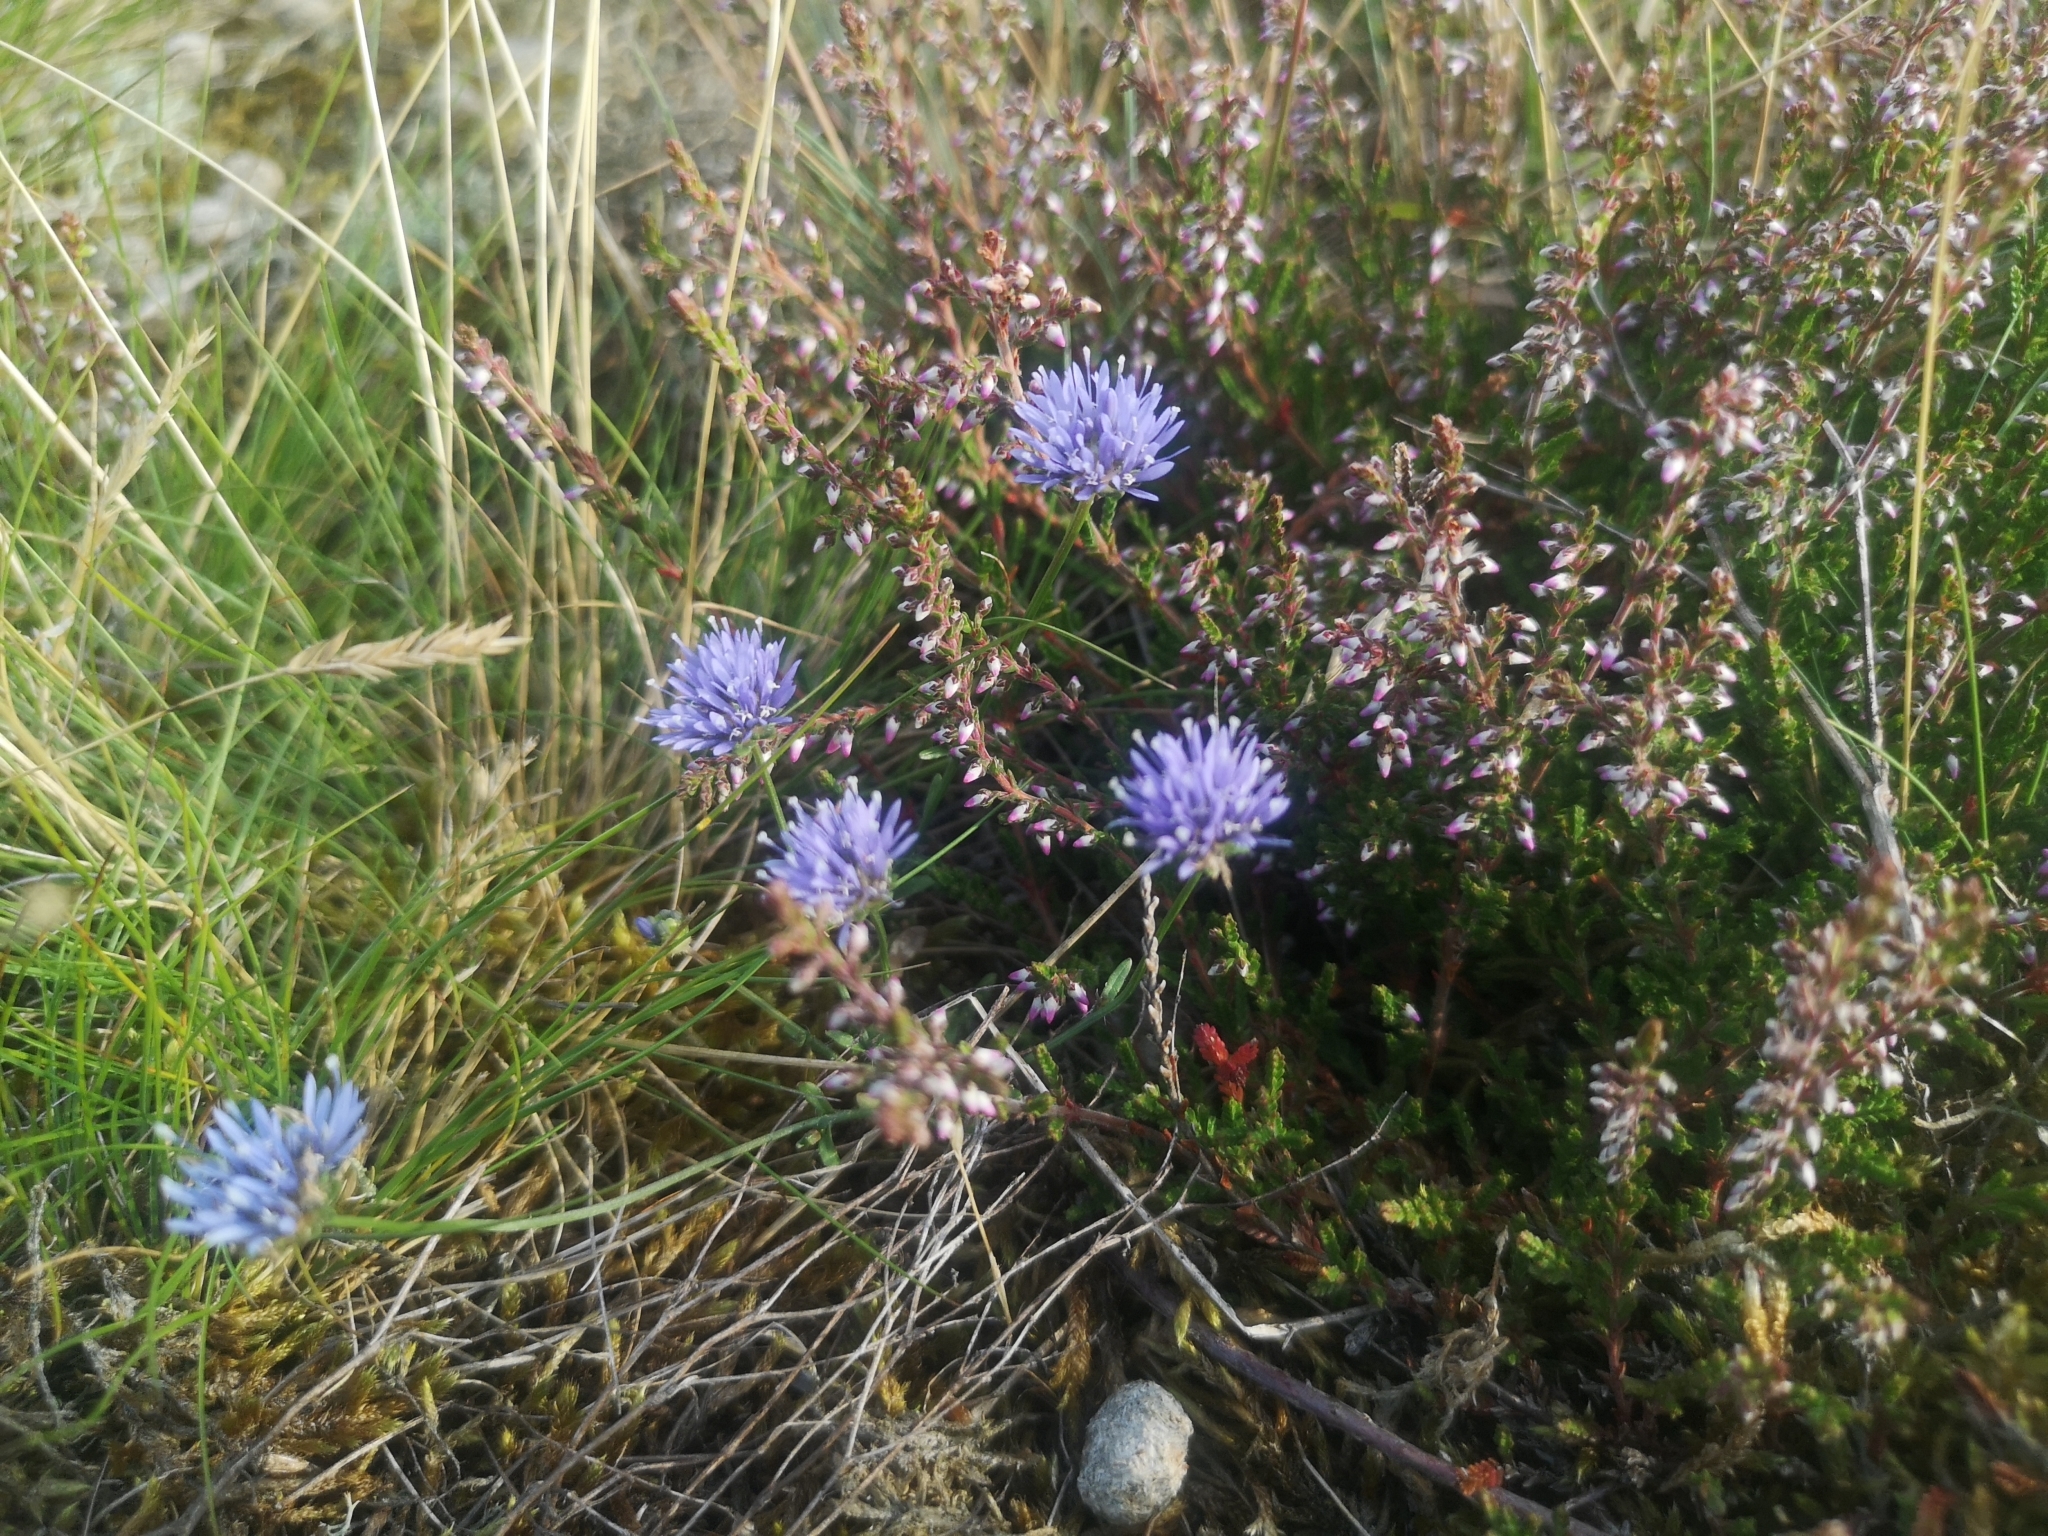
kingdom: Plantae
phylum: Tracheophyta
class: Magnoliopsida
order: Asterales
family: Campanulaceae
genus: Jasione
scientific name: Jasione montana
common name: Sheep's-bit
